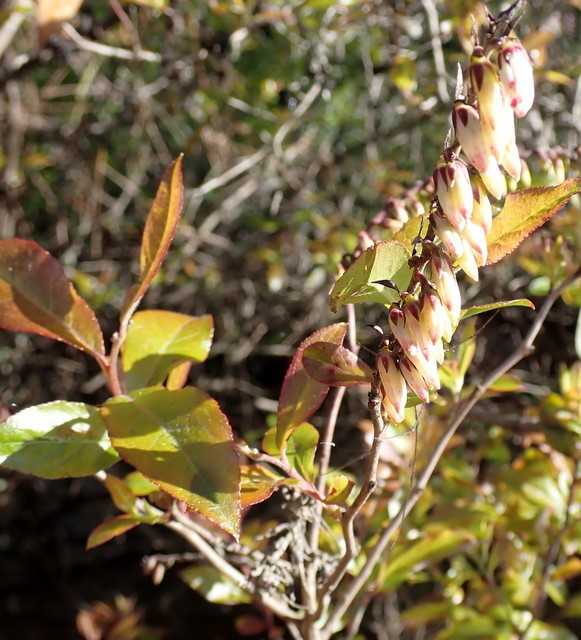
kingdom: Plantae
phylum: Tracheophyta
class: Magnoliopsida
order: Ericales
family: Ericaceae
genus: Eubotrys
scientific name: Eubotrys racemosa
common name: Fetterbush
